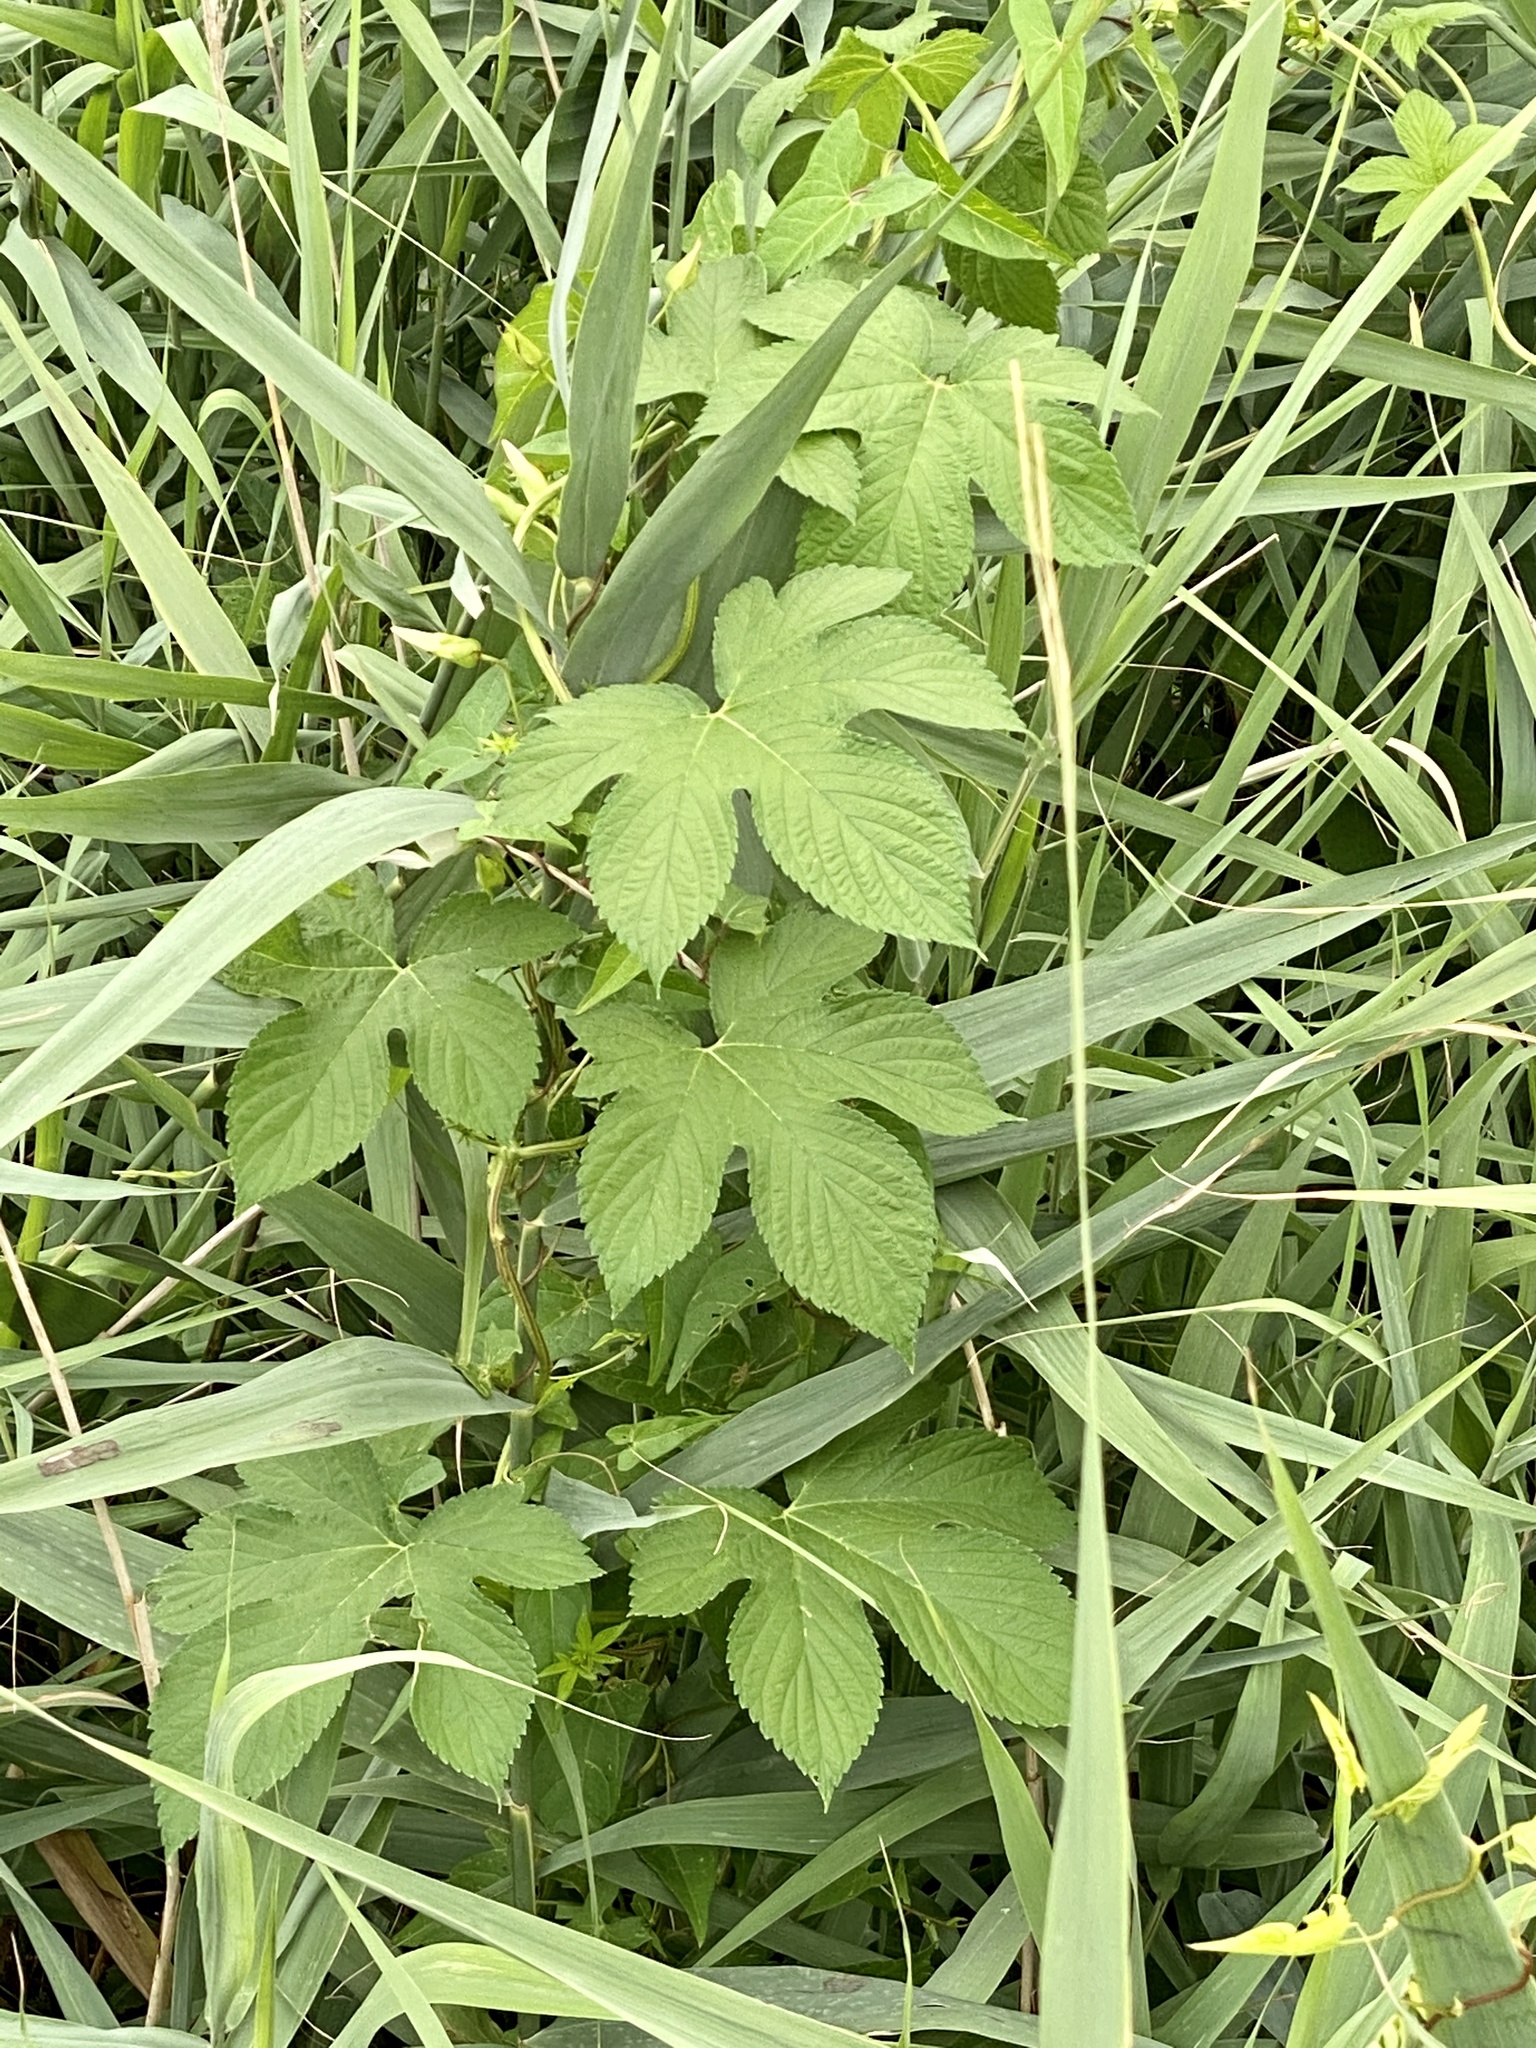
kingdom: Plantae
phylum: Tracheophyta
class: Magnoliopsida
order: Rosales
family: Cannabaceae
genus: Humulus
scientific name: Humulus scandens
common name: Japanese hop
